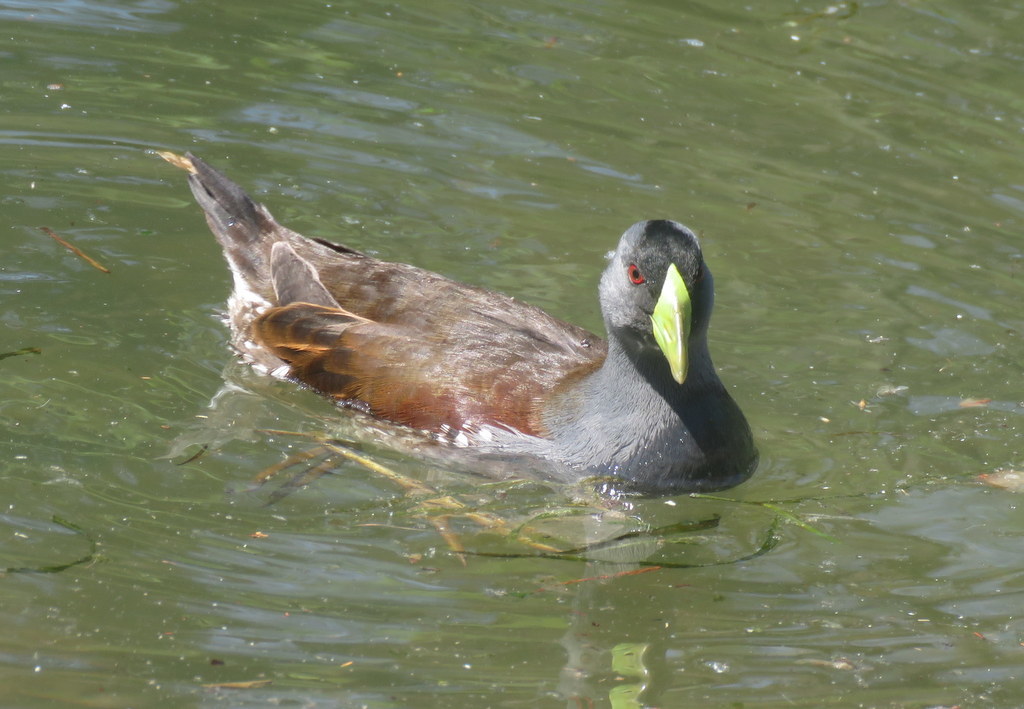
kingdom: Animalia
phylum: Chordata
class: Aves
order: Gruiformes
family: Rallidae
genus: Gallinula
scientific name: Gallinula melanops
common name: Spot-flanked gallinule
